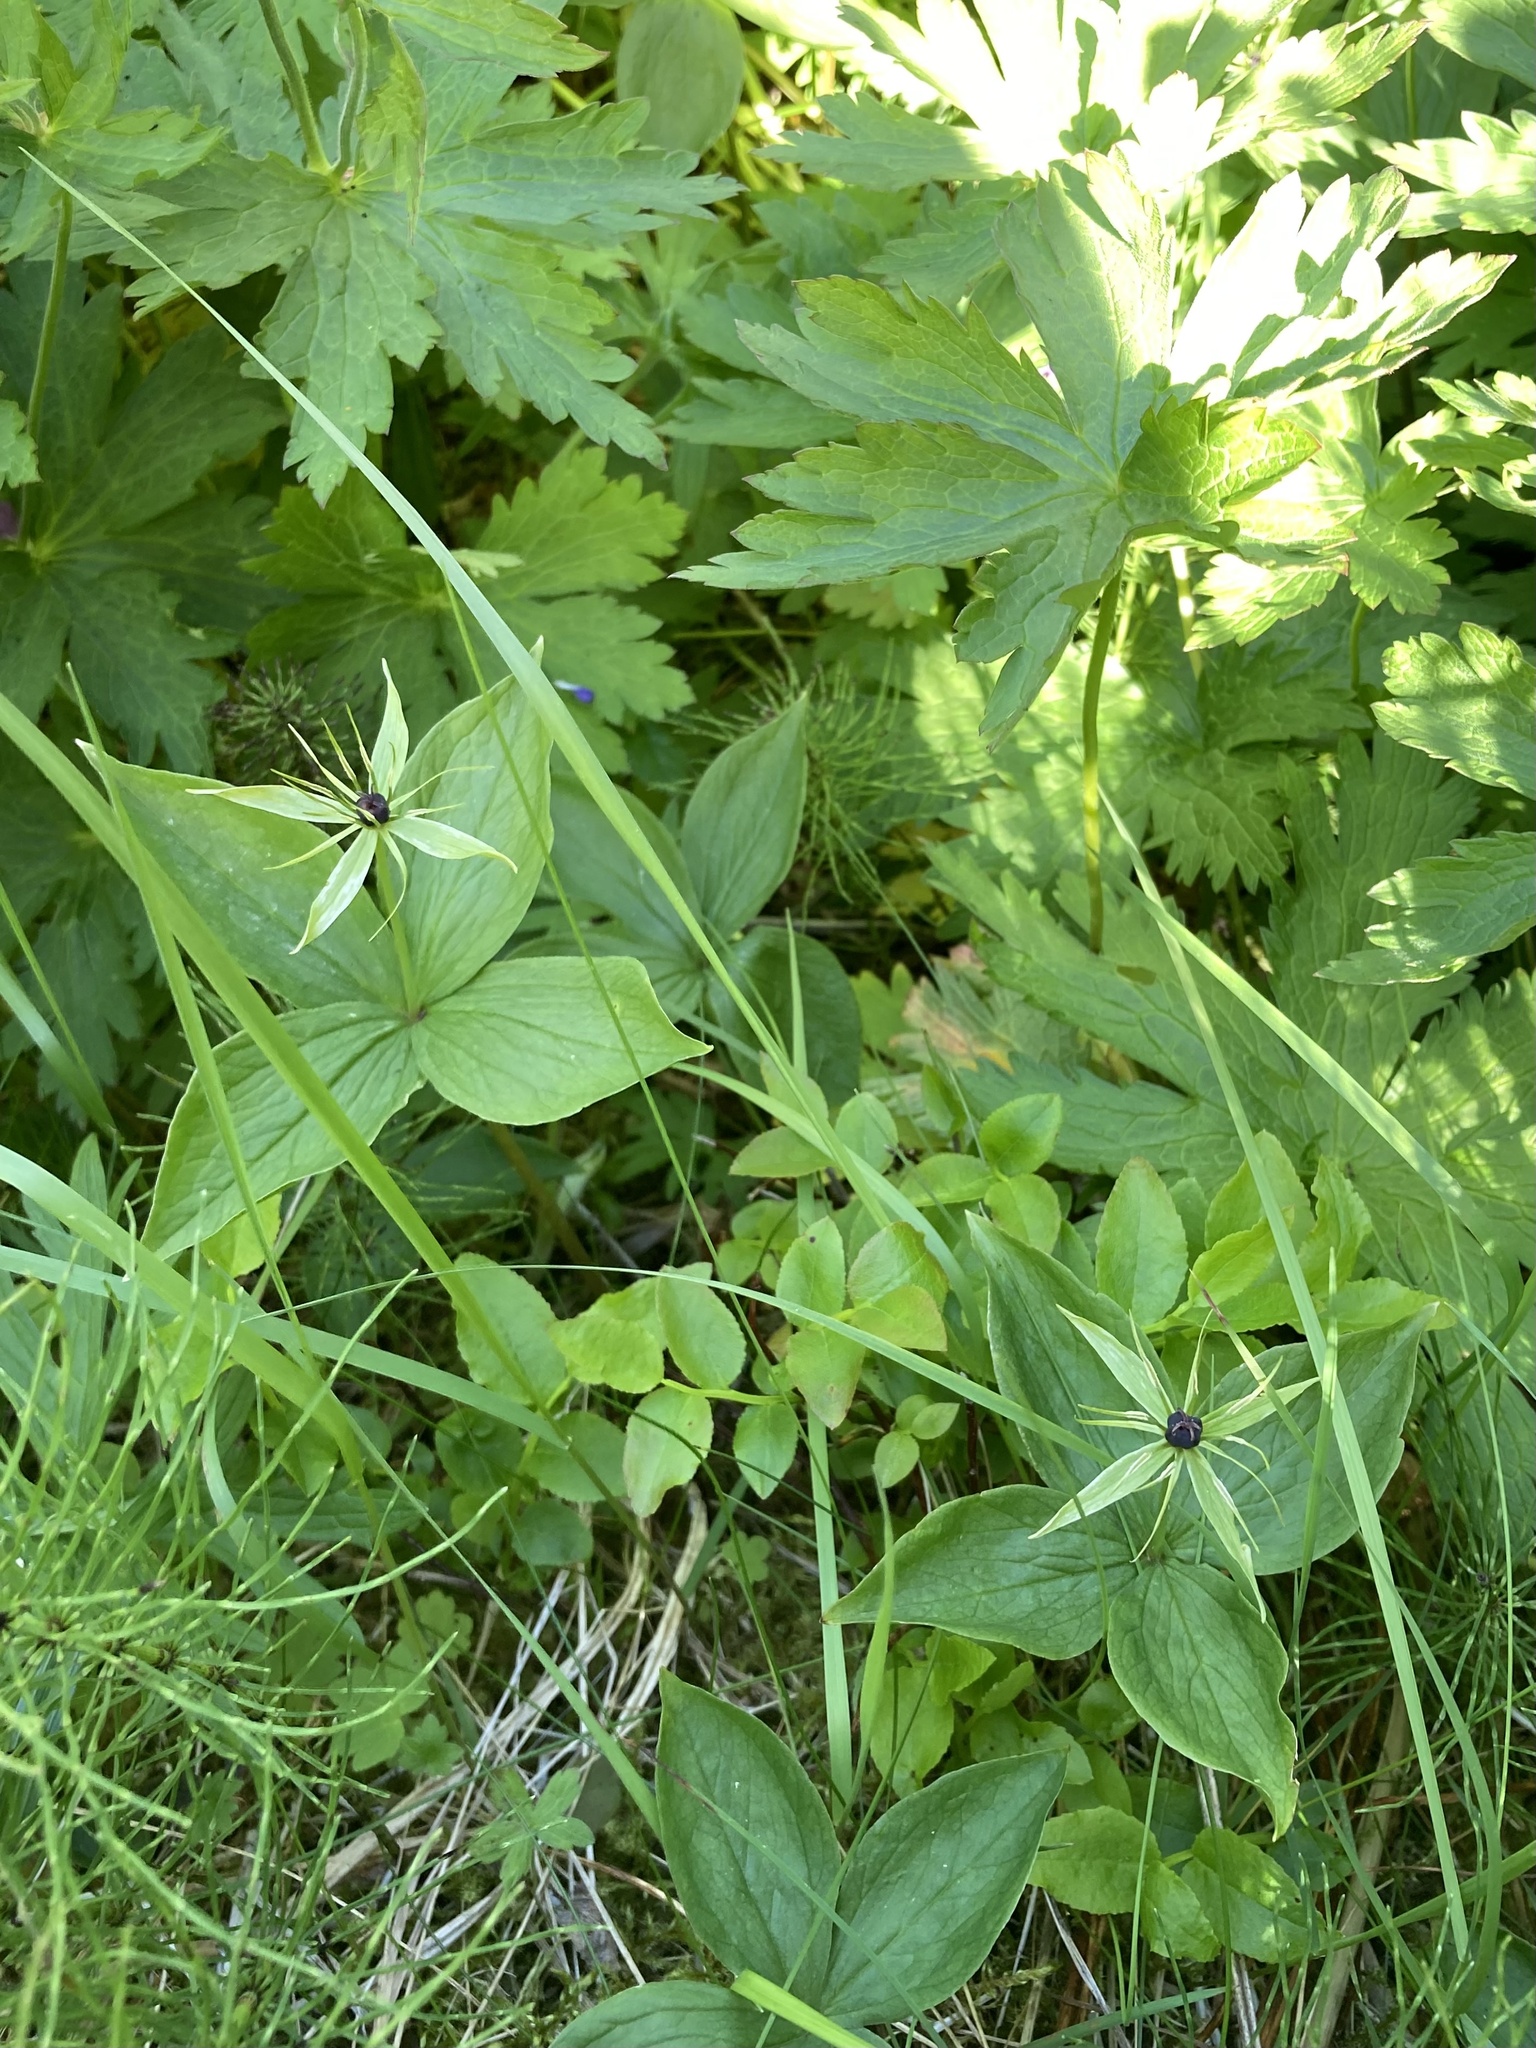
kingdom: Plantae
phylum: Tracheophyta
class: Liliopsida
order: Liliales
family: Melanthiaceae
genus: Paris
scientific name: Paris quadrifolia
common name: Herb-paris
